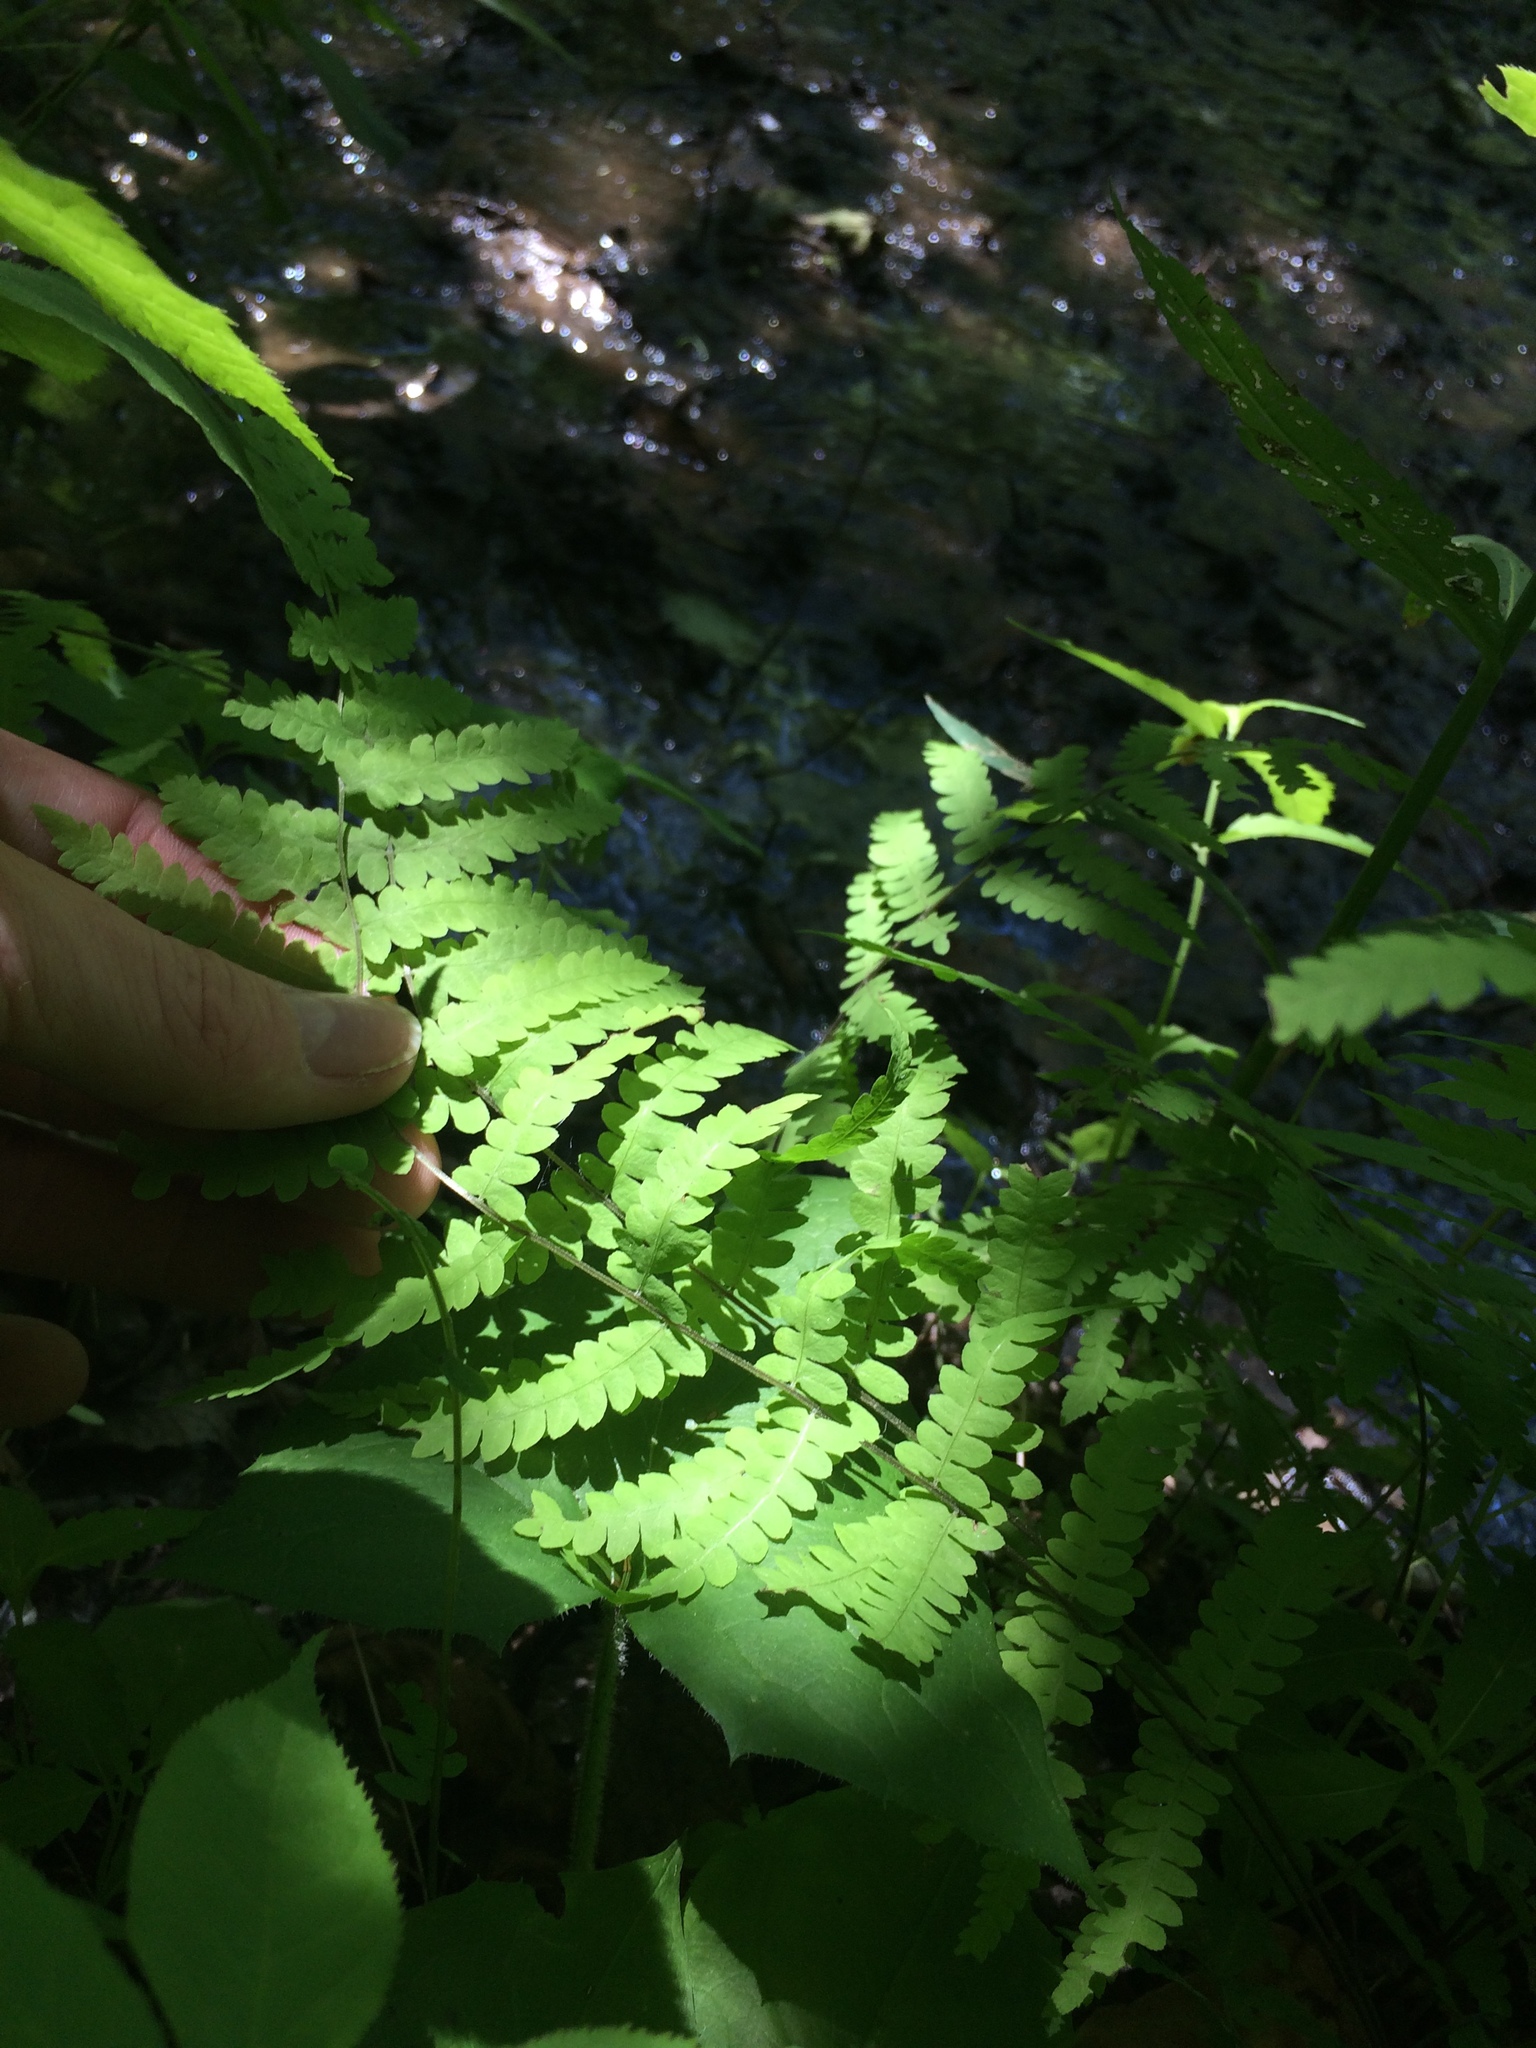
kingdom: Plantae
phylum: Tracheophyta
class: Polypodiopsida
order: Polypodiales
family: Thelypteridaceae
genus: Thelypteris
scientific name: Thelypteris palustris
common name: Marsh fern
